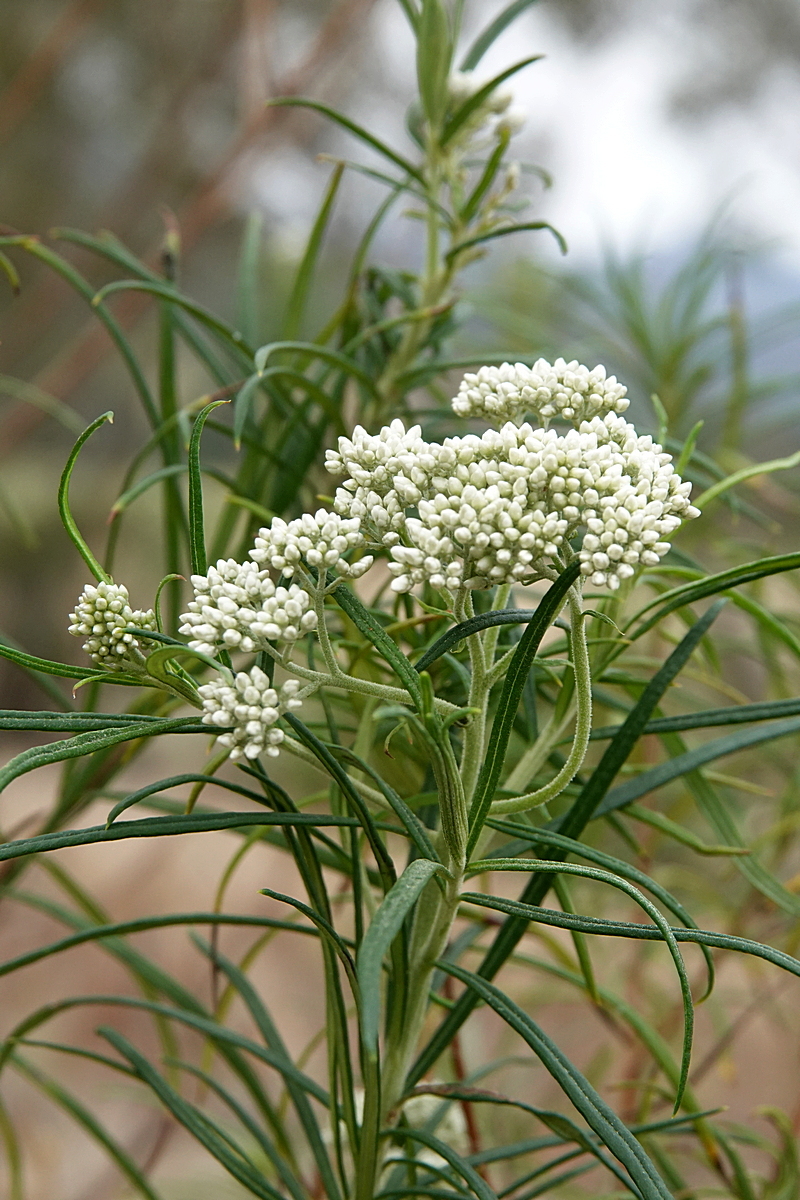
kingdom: Plantae
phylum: Tracheophyta
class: Magnoliopsida
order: Asterales
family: Asteraceae
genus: Cassinia
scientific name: Cassinia longifolia
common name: Longleaf-dogwood
